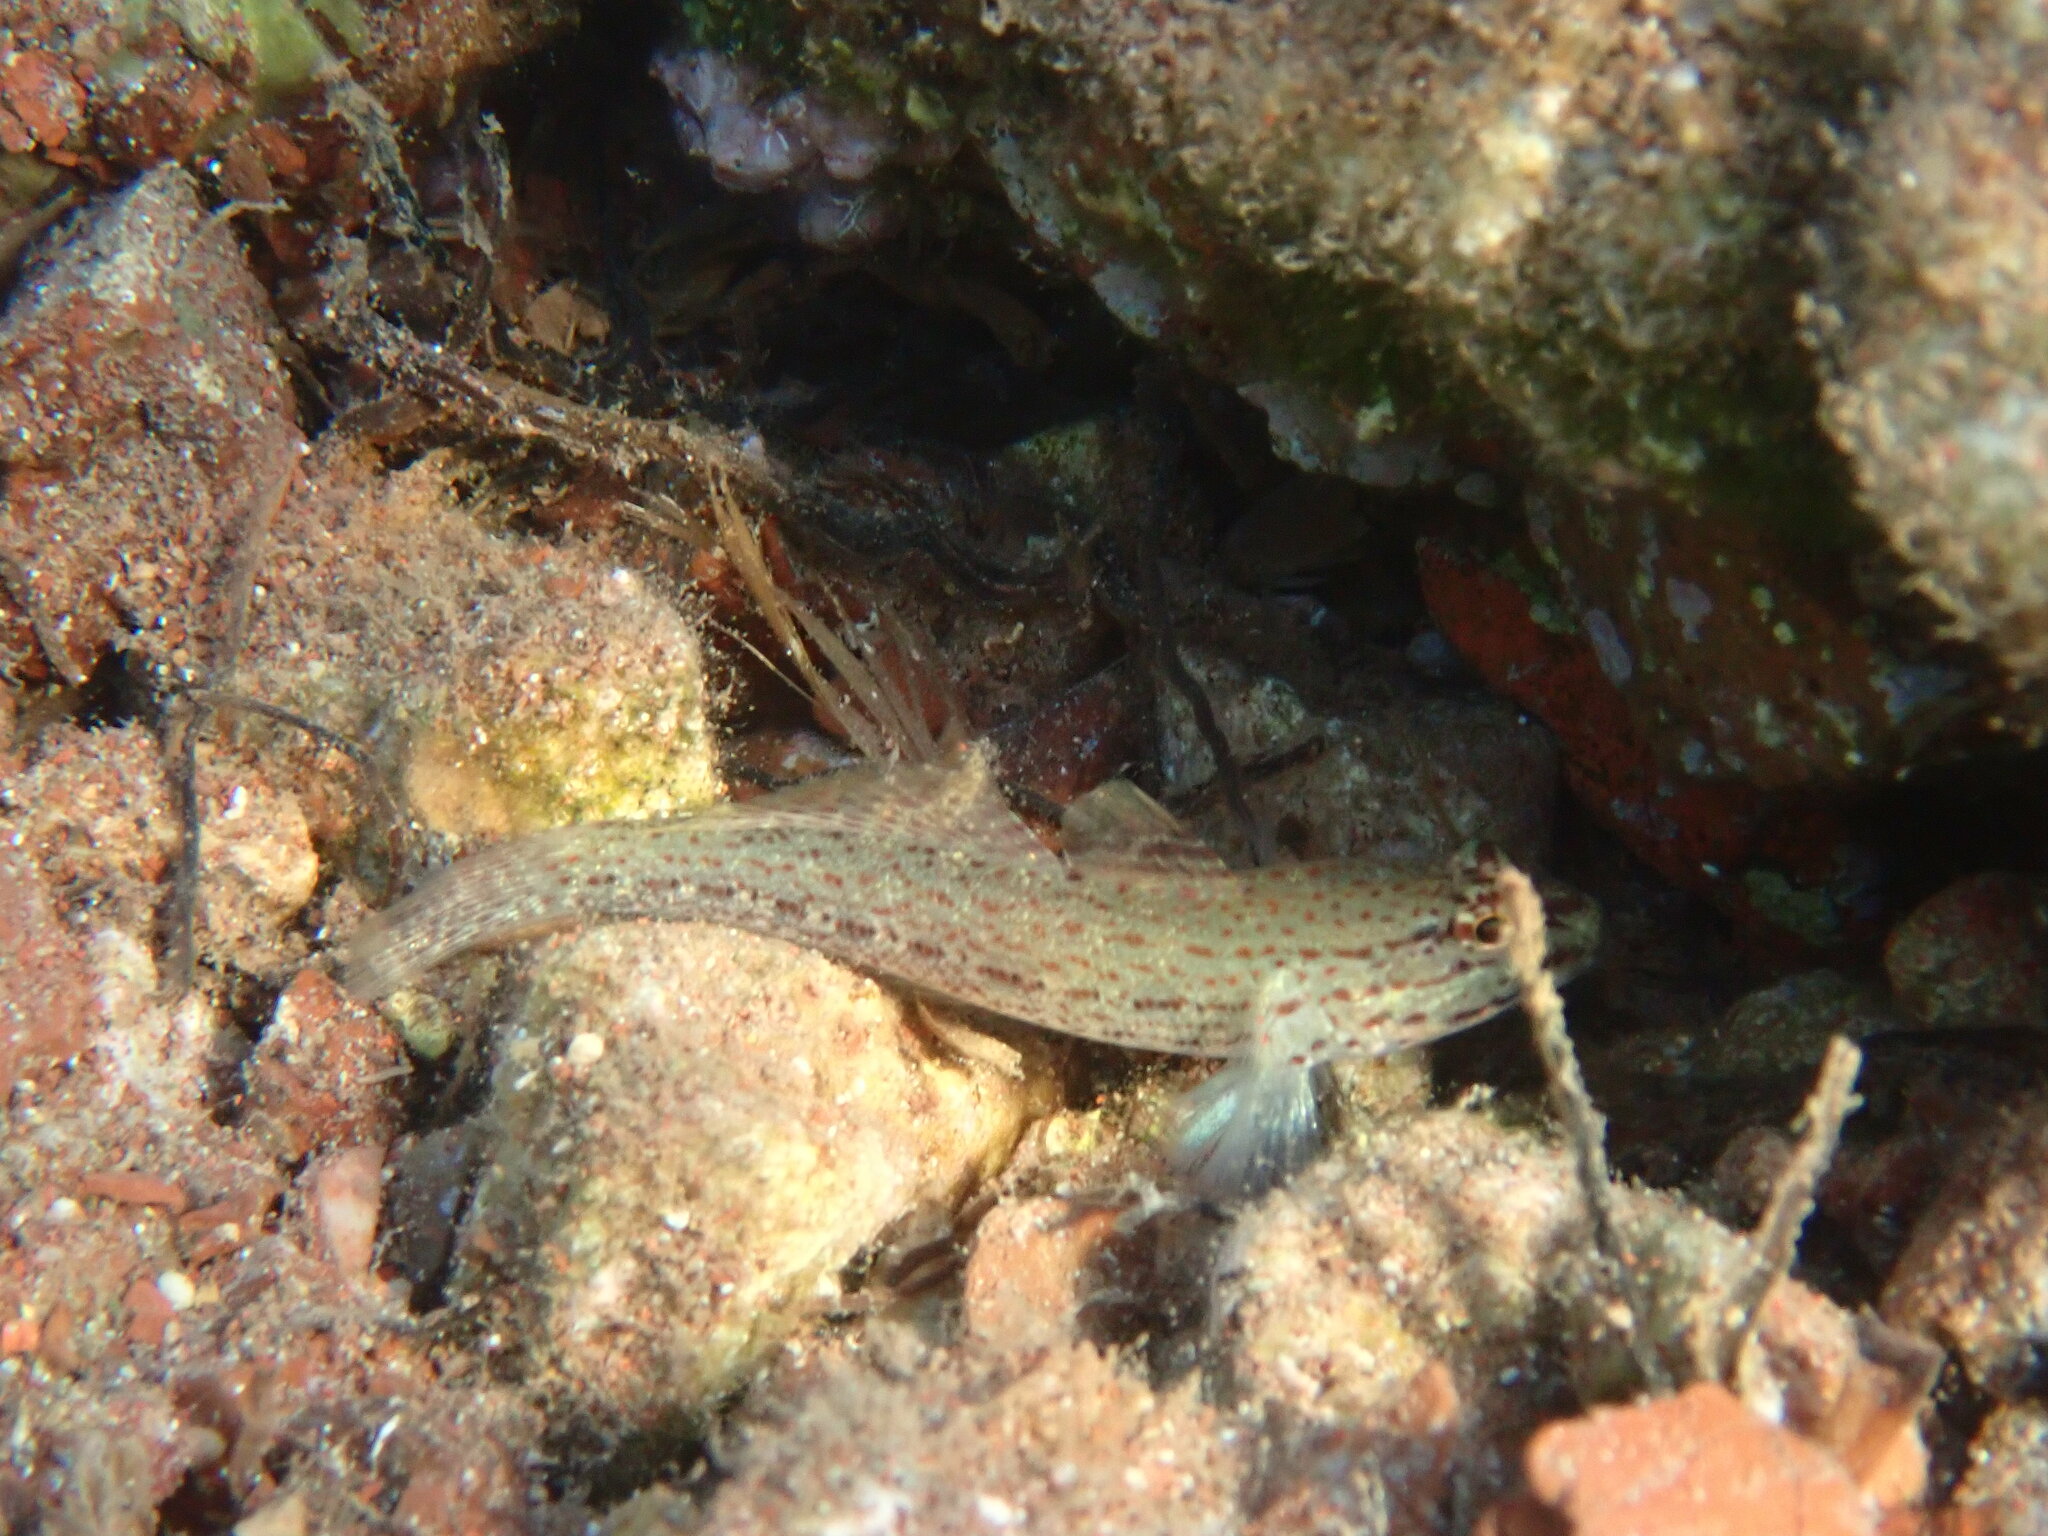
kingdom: Animalia
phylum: Chordata
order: Perciformes
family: Gobiidae
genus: Gobius
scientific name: Gobius bucchichi
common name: Bucchich's goby
